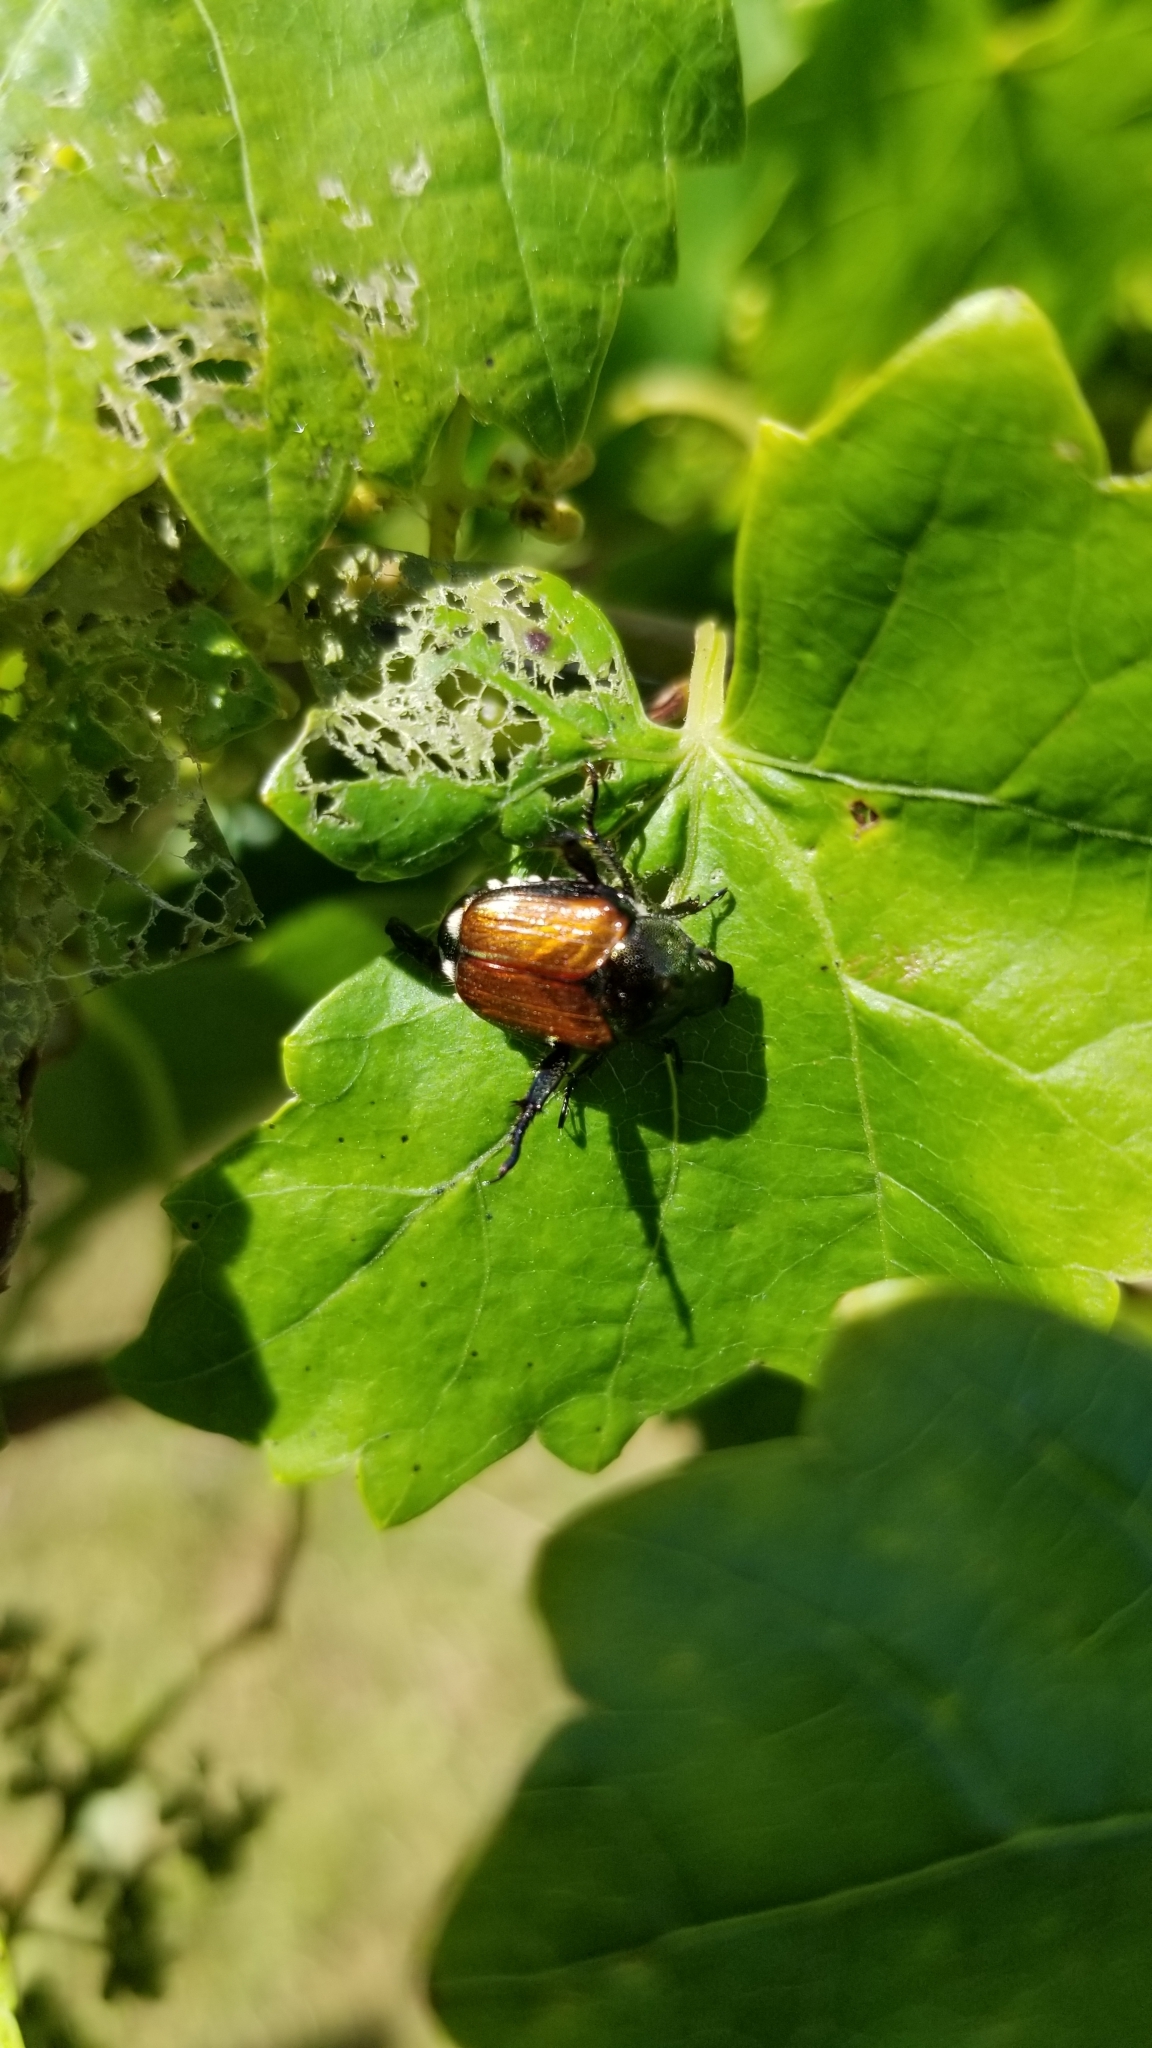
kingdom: Animalia
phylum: Arthropoda
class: Insecta
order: Coleoptera
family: Scarabaeidae
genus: Popillia
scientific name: Popillia japonica
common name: Japanese beetle
